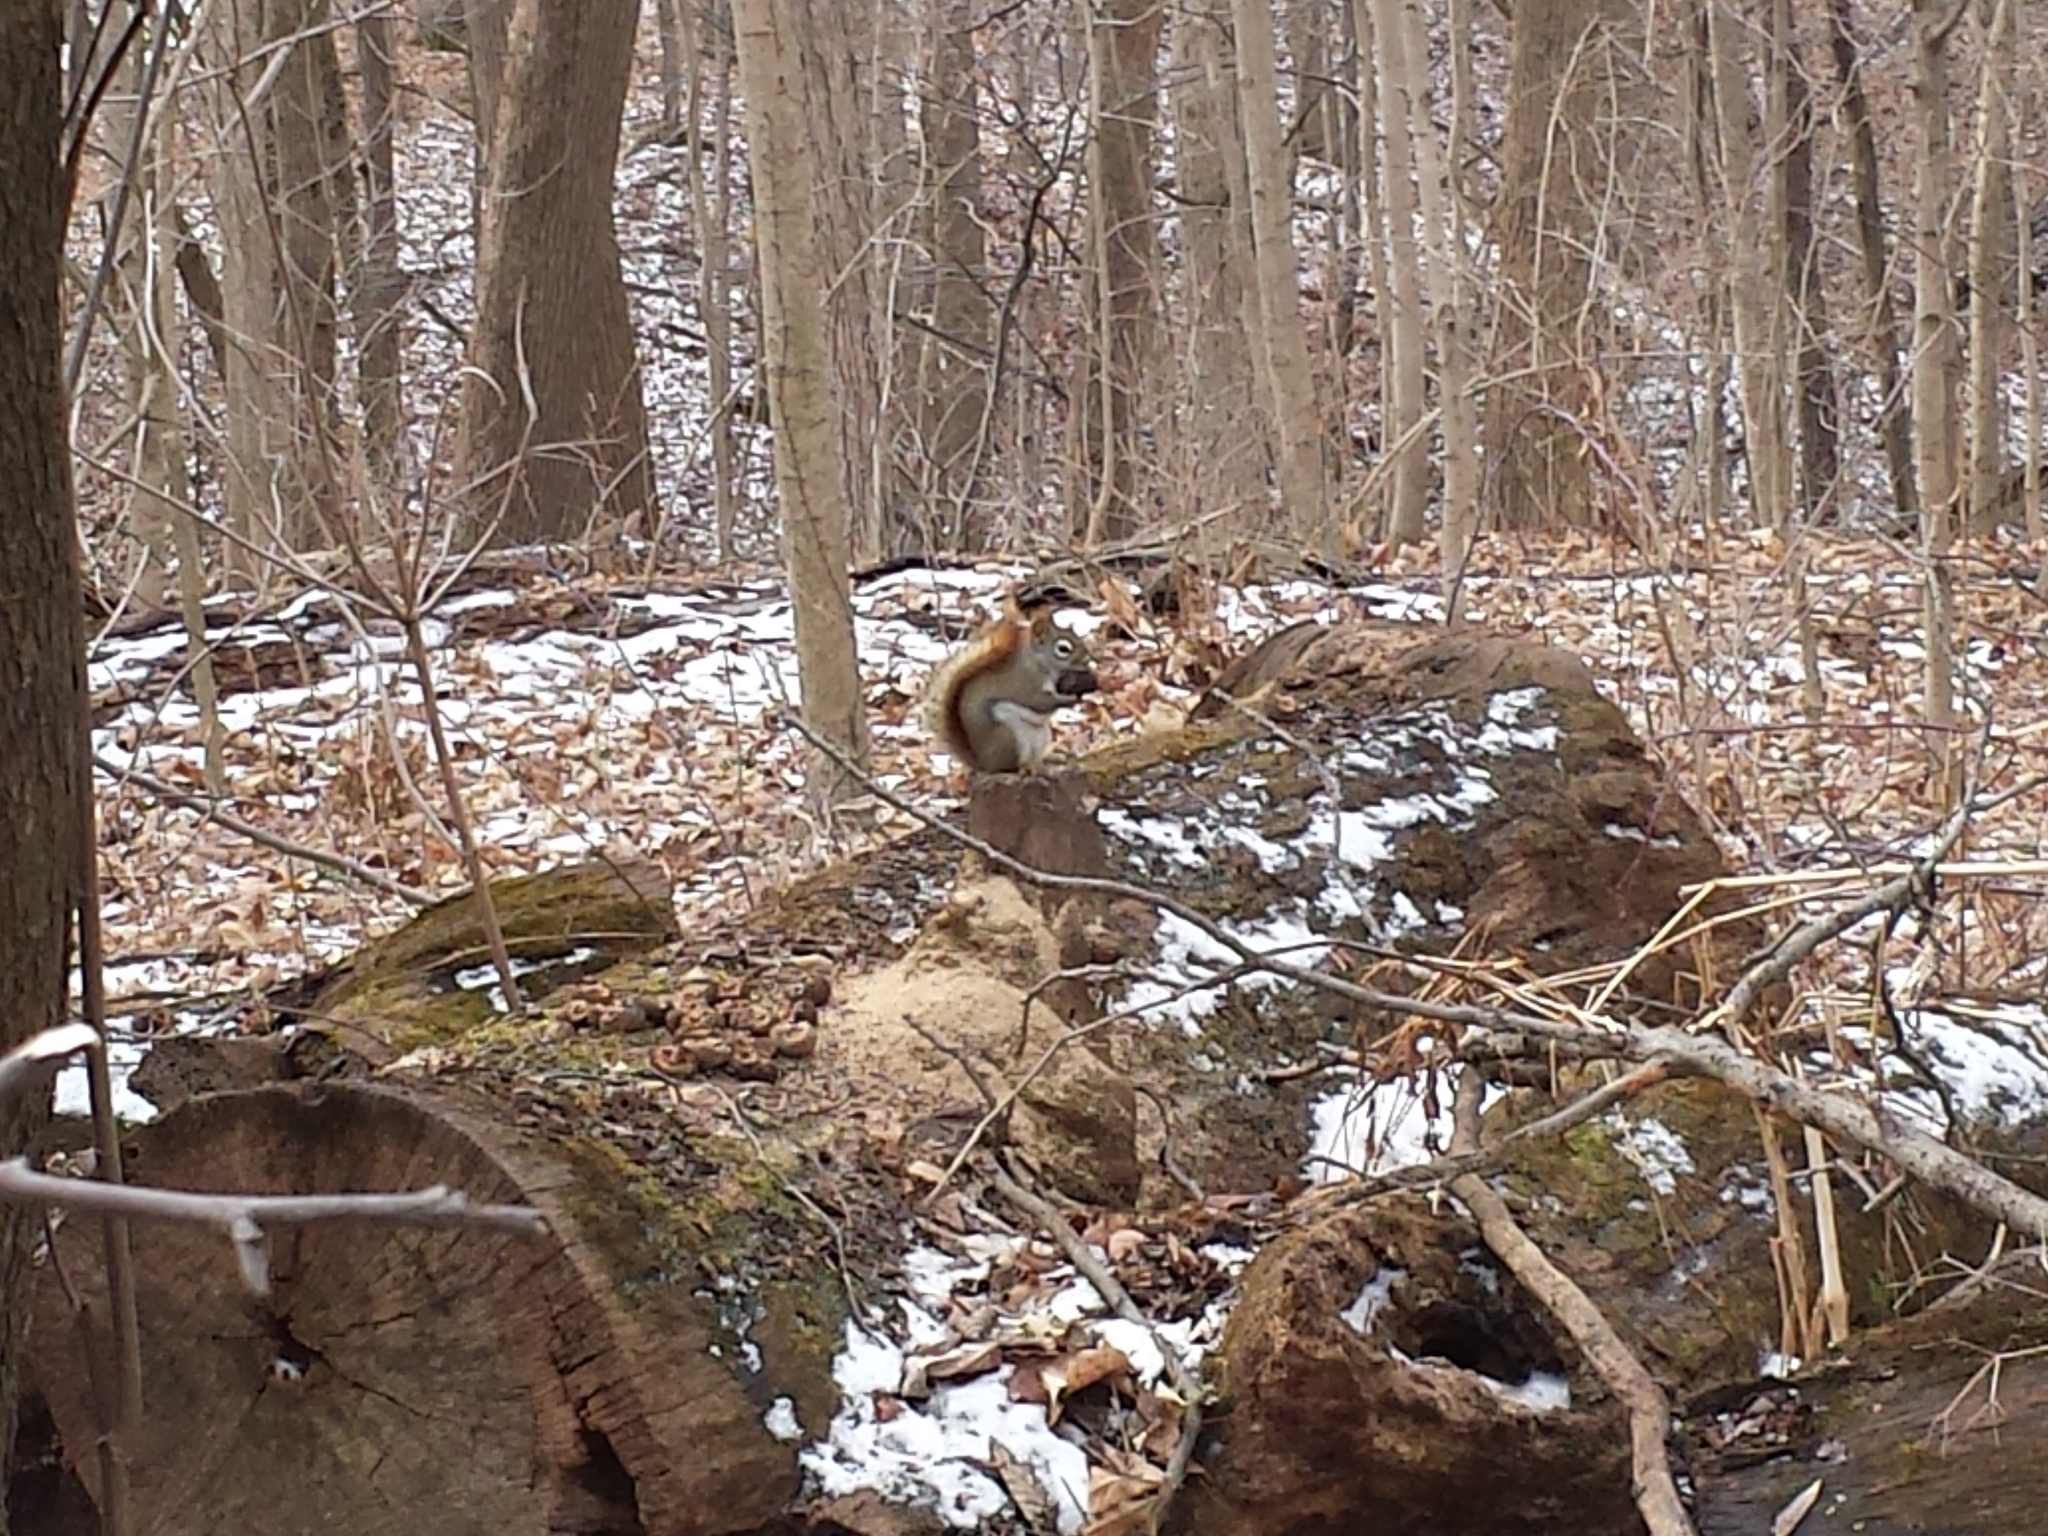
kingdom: Animalia
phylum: Chordata
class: Mammalia
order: Rodentia
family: Sciuridae
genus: Tamiasciurus
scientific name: Tamiasciurus hudsonicus
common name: Red squirrel
